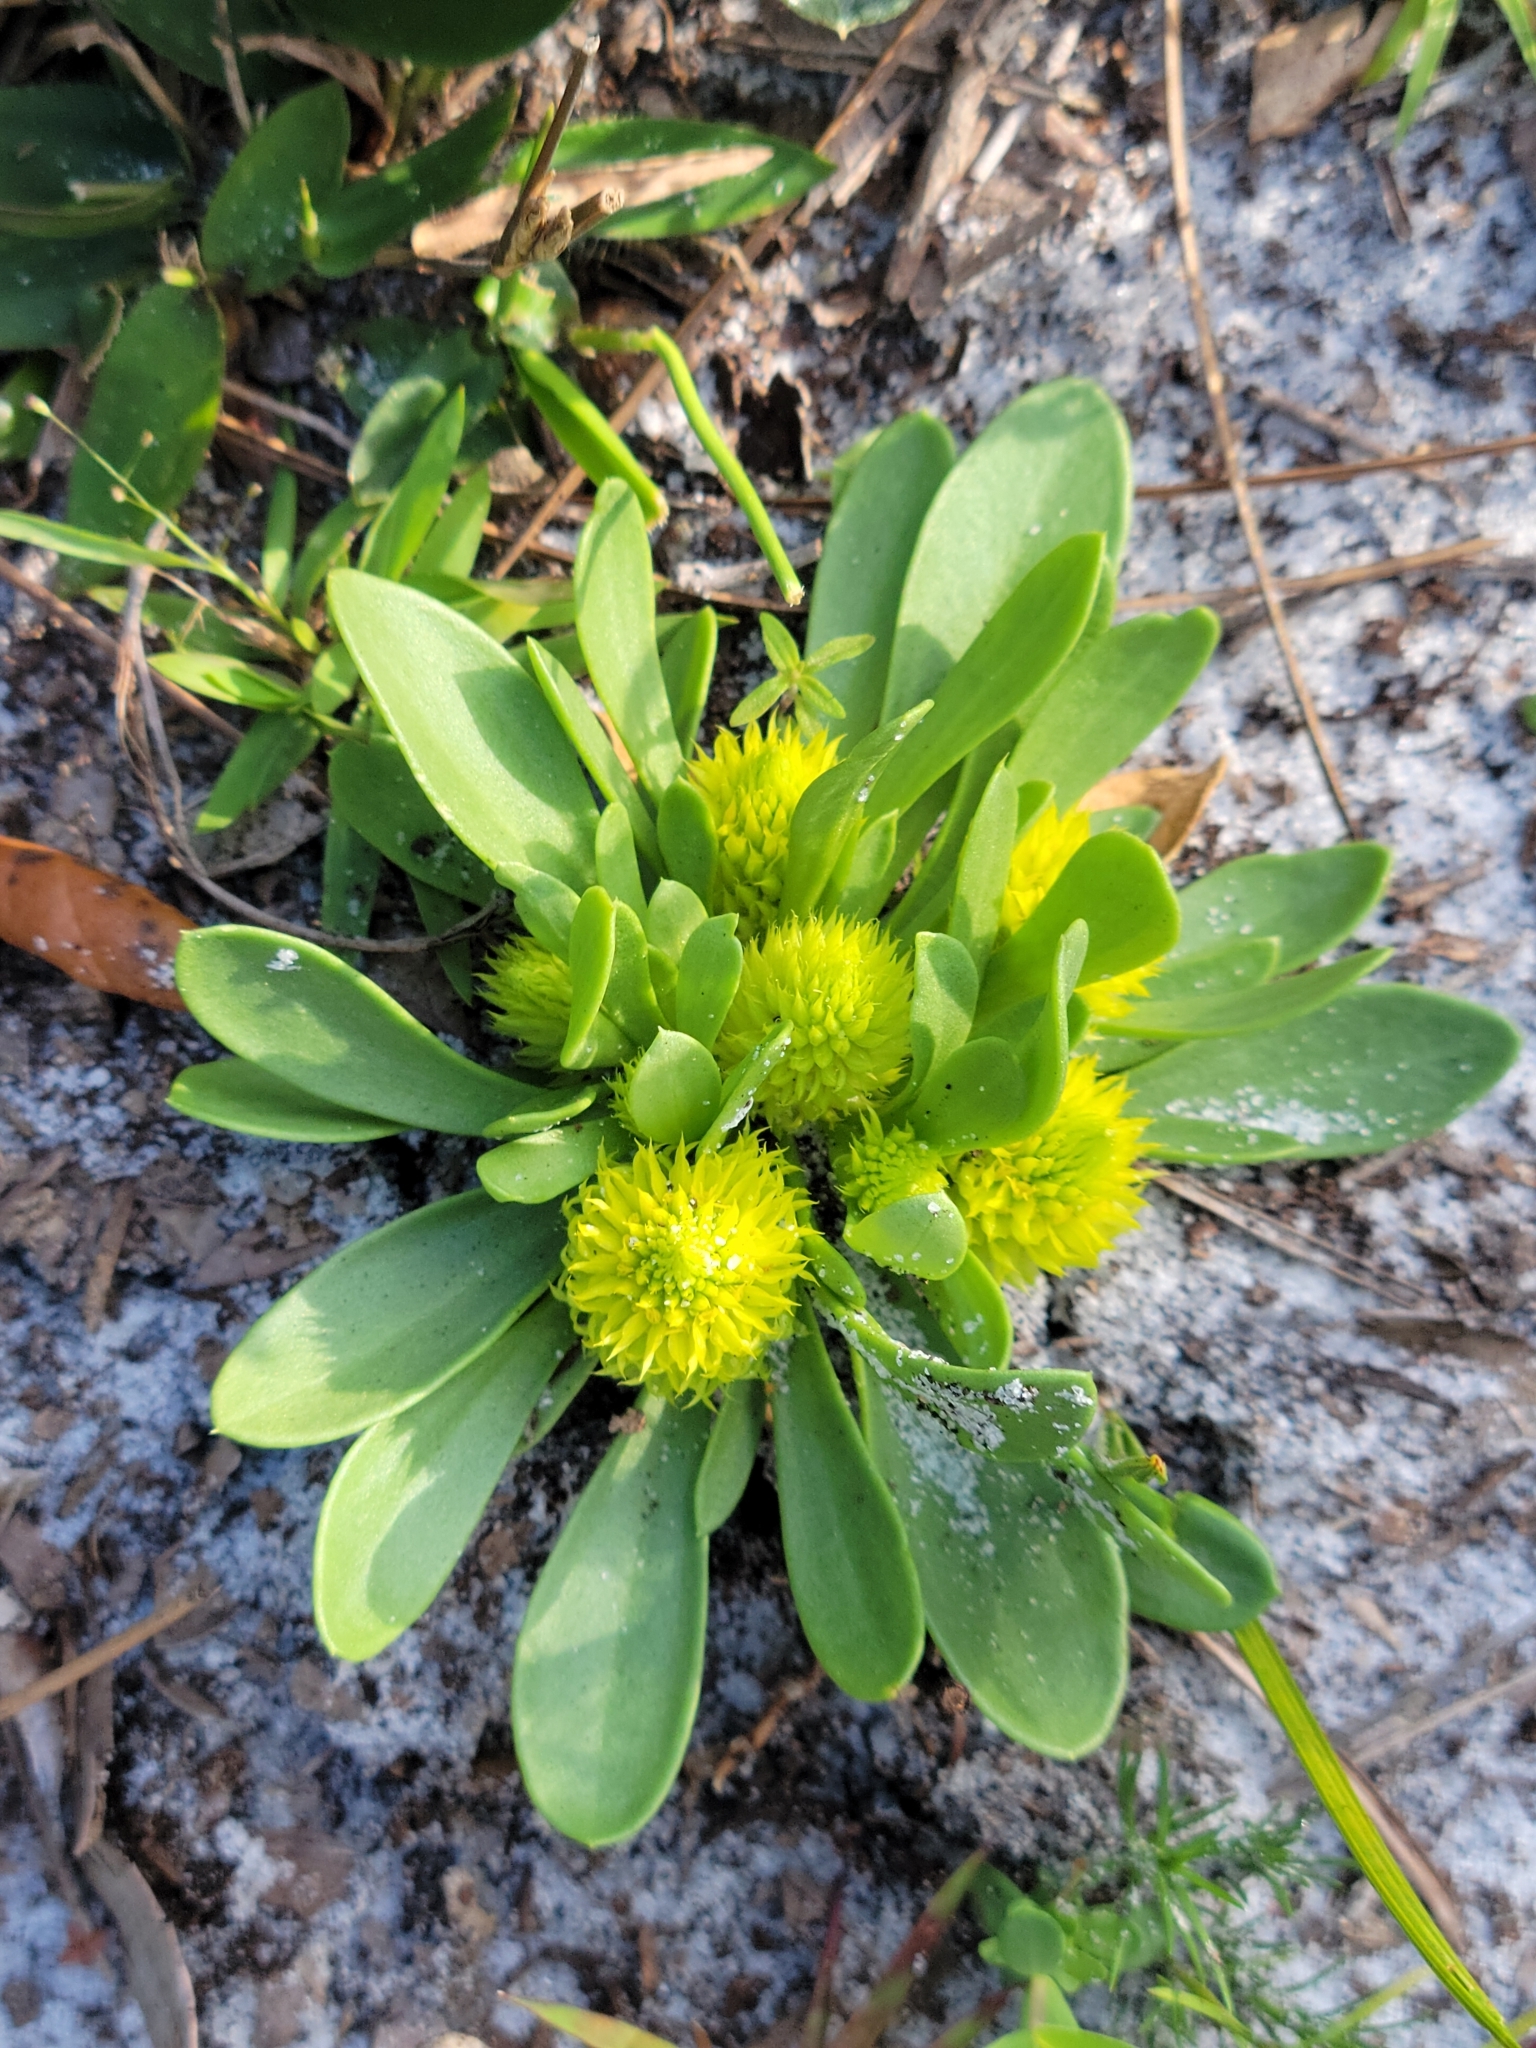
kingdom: Plantae
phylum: Tracheophyta
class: Magnoliopsida
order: Fabales
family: Polygalaceae
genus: Polygala
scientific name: Polygala nana
